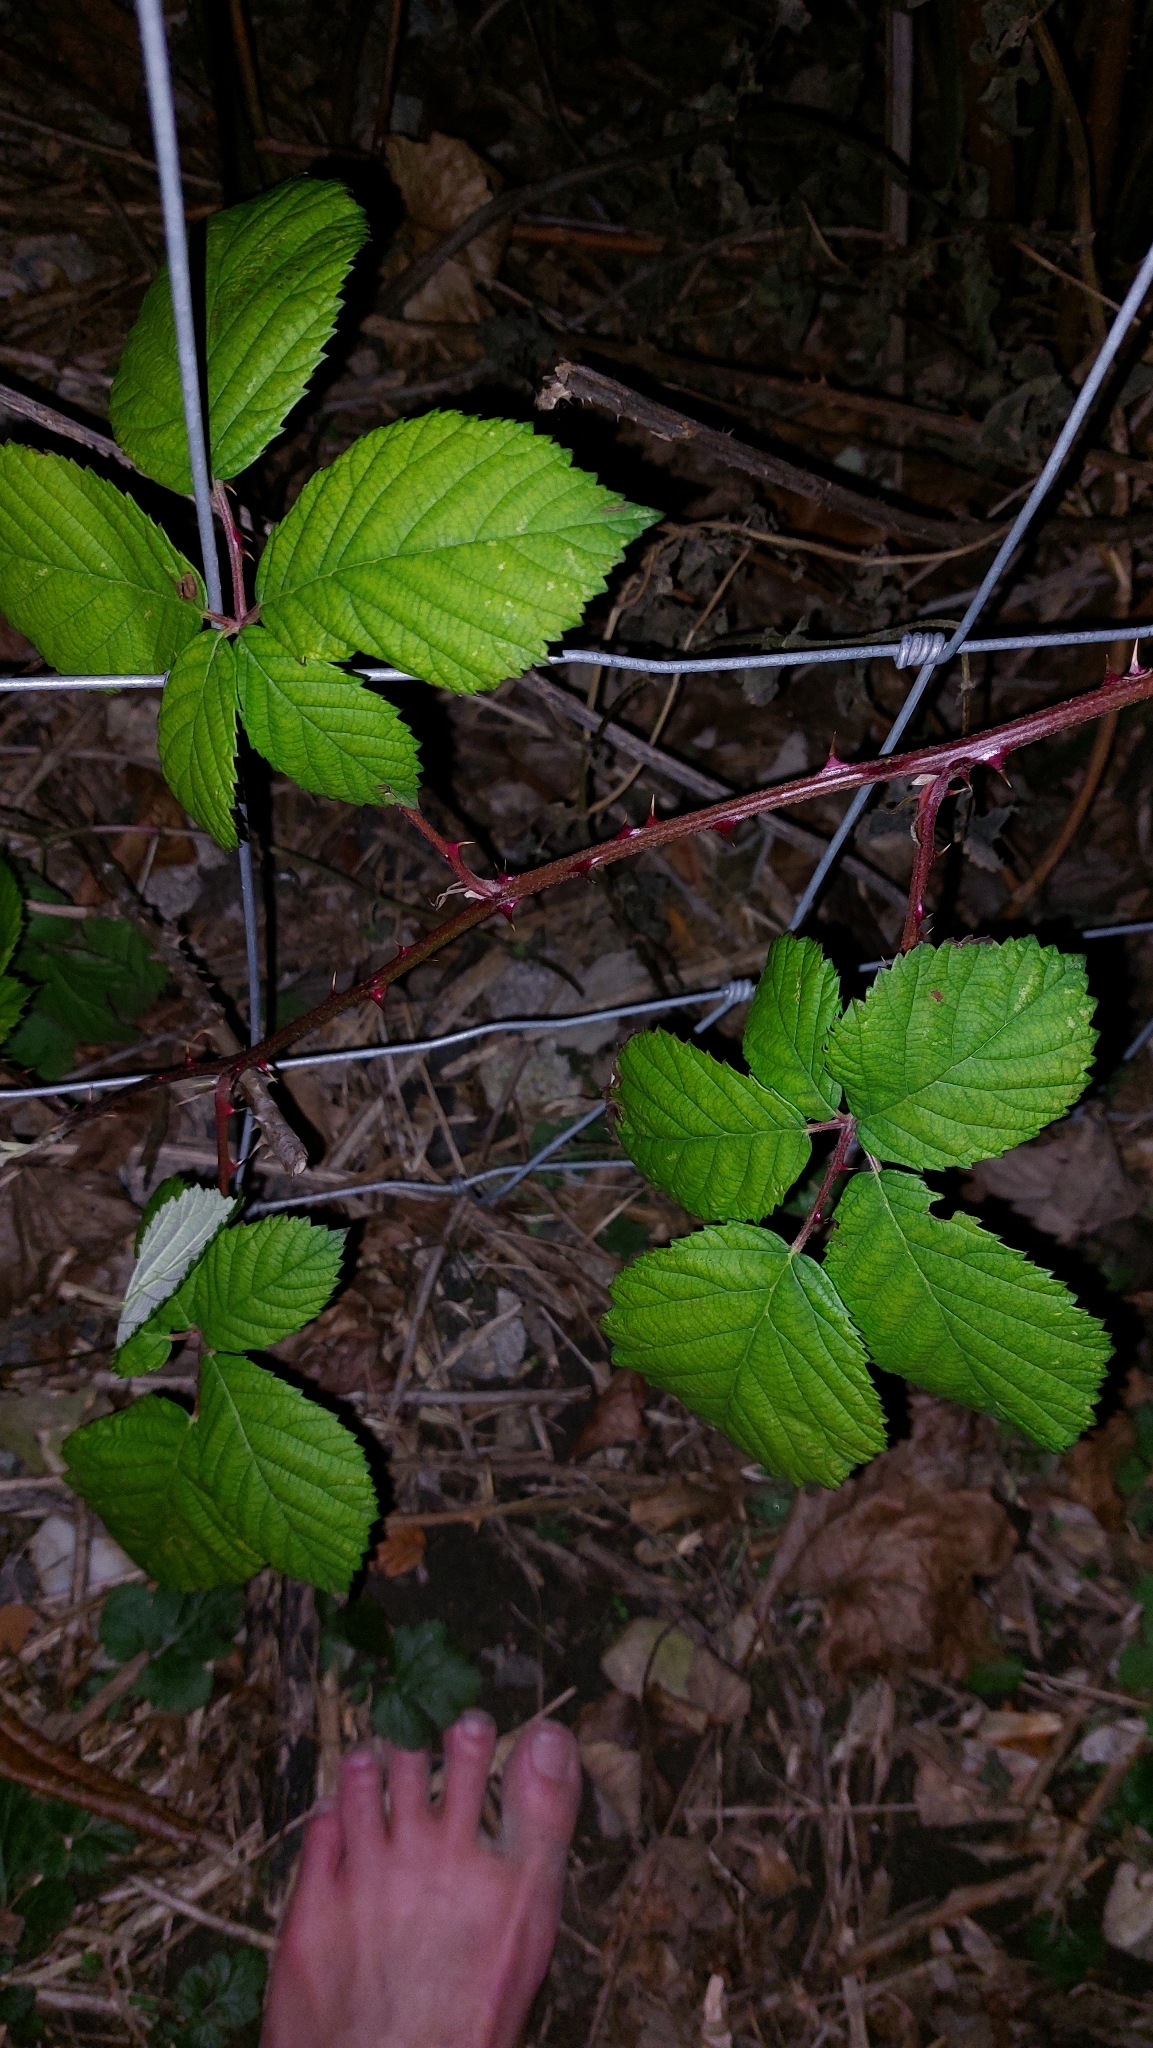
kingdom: Plantae
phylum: Tracheophyta
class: Magnoliopsida
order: Rosales
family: Rosaceae
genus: Rubus
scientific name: Rubus
